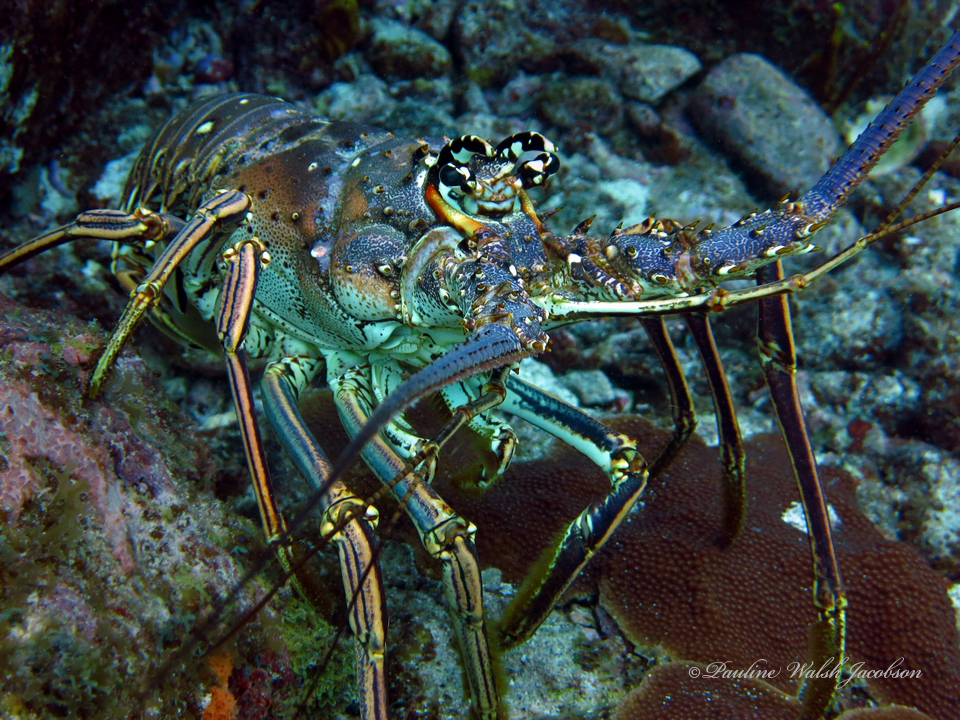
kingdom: Animalia
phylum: Arthropoda
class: Malacostraca
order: Decapoda
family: Palinuridae
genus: Panulirus
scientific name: Panulirus argus
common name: Caribbean spiny lobster
